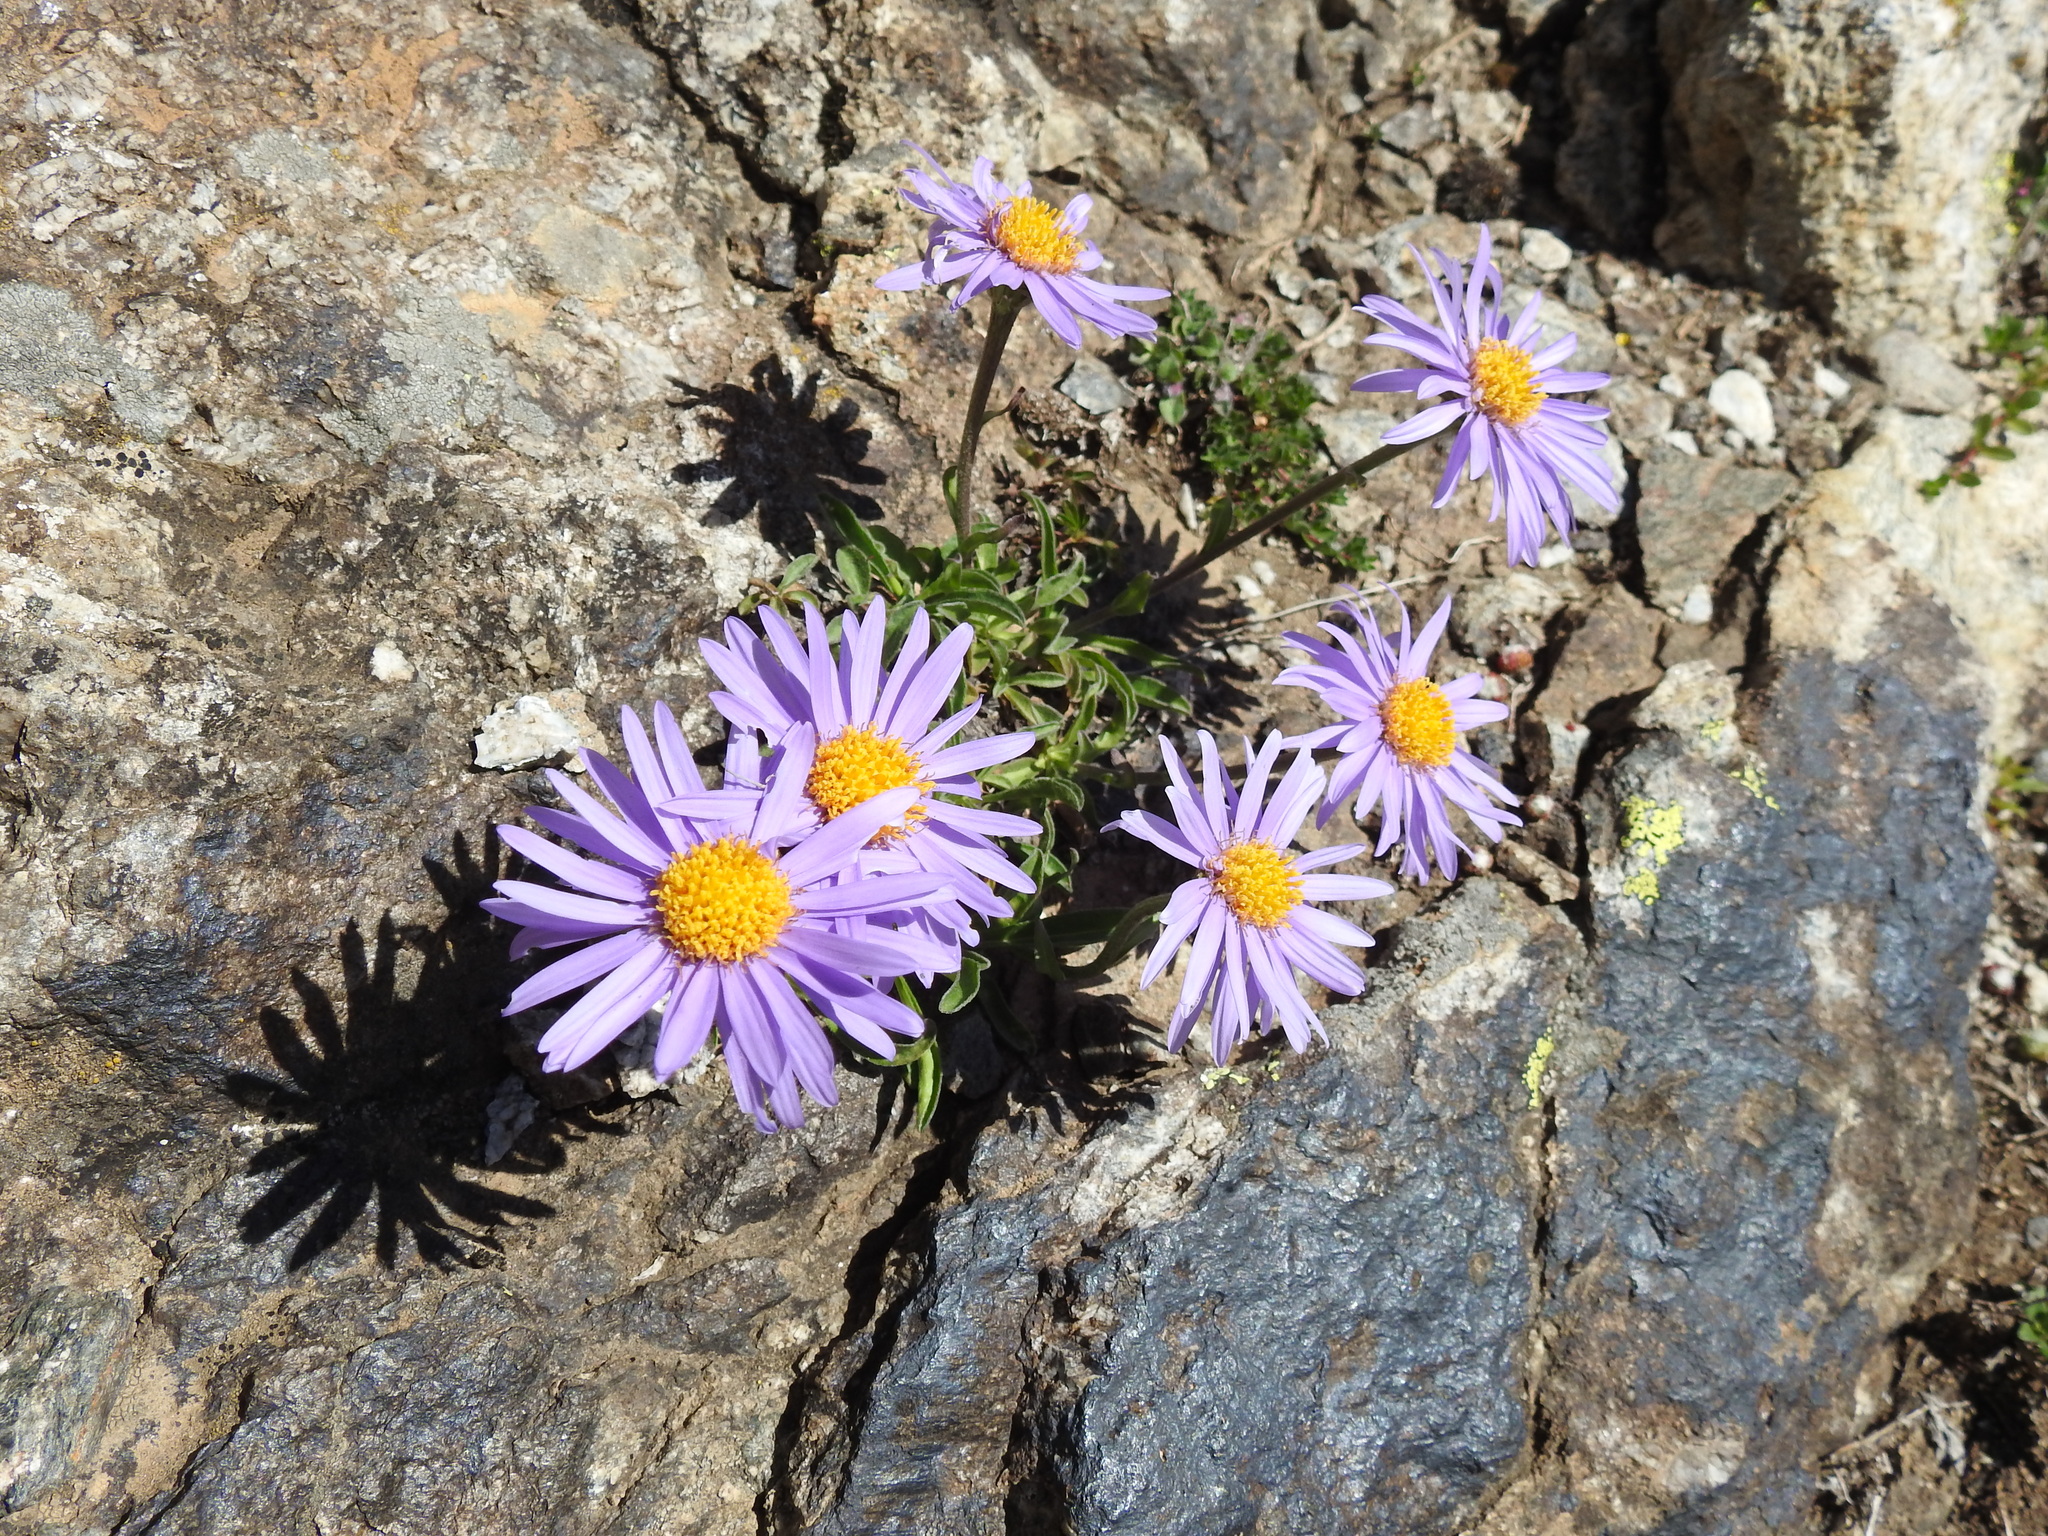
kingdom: Plantae
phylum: Tracheophyta
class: Magnoliopsida
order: Asterales
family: Asteraceae
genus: Aster
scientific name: Aster alpinus
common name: Alpine aster
